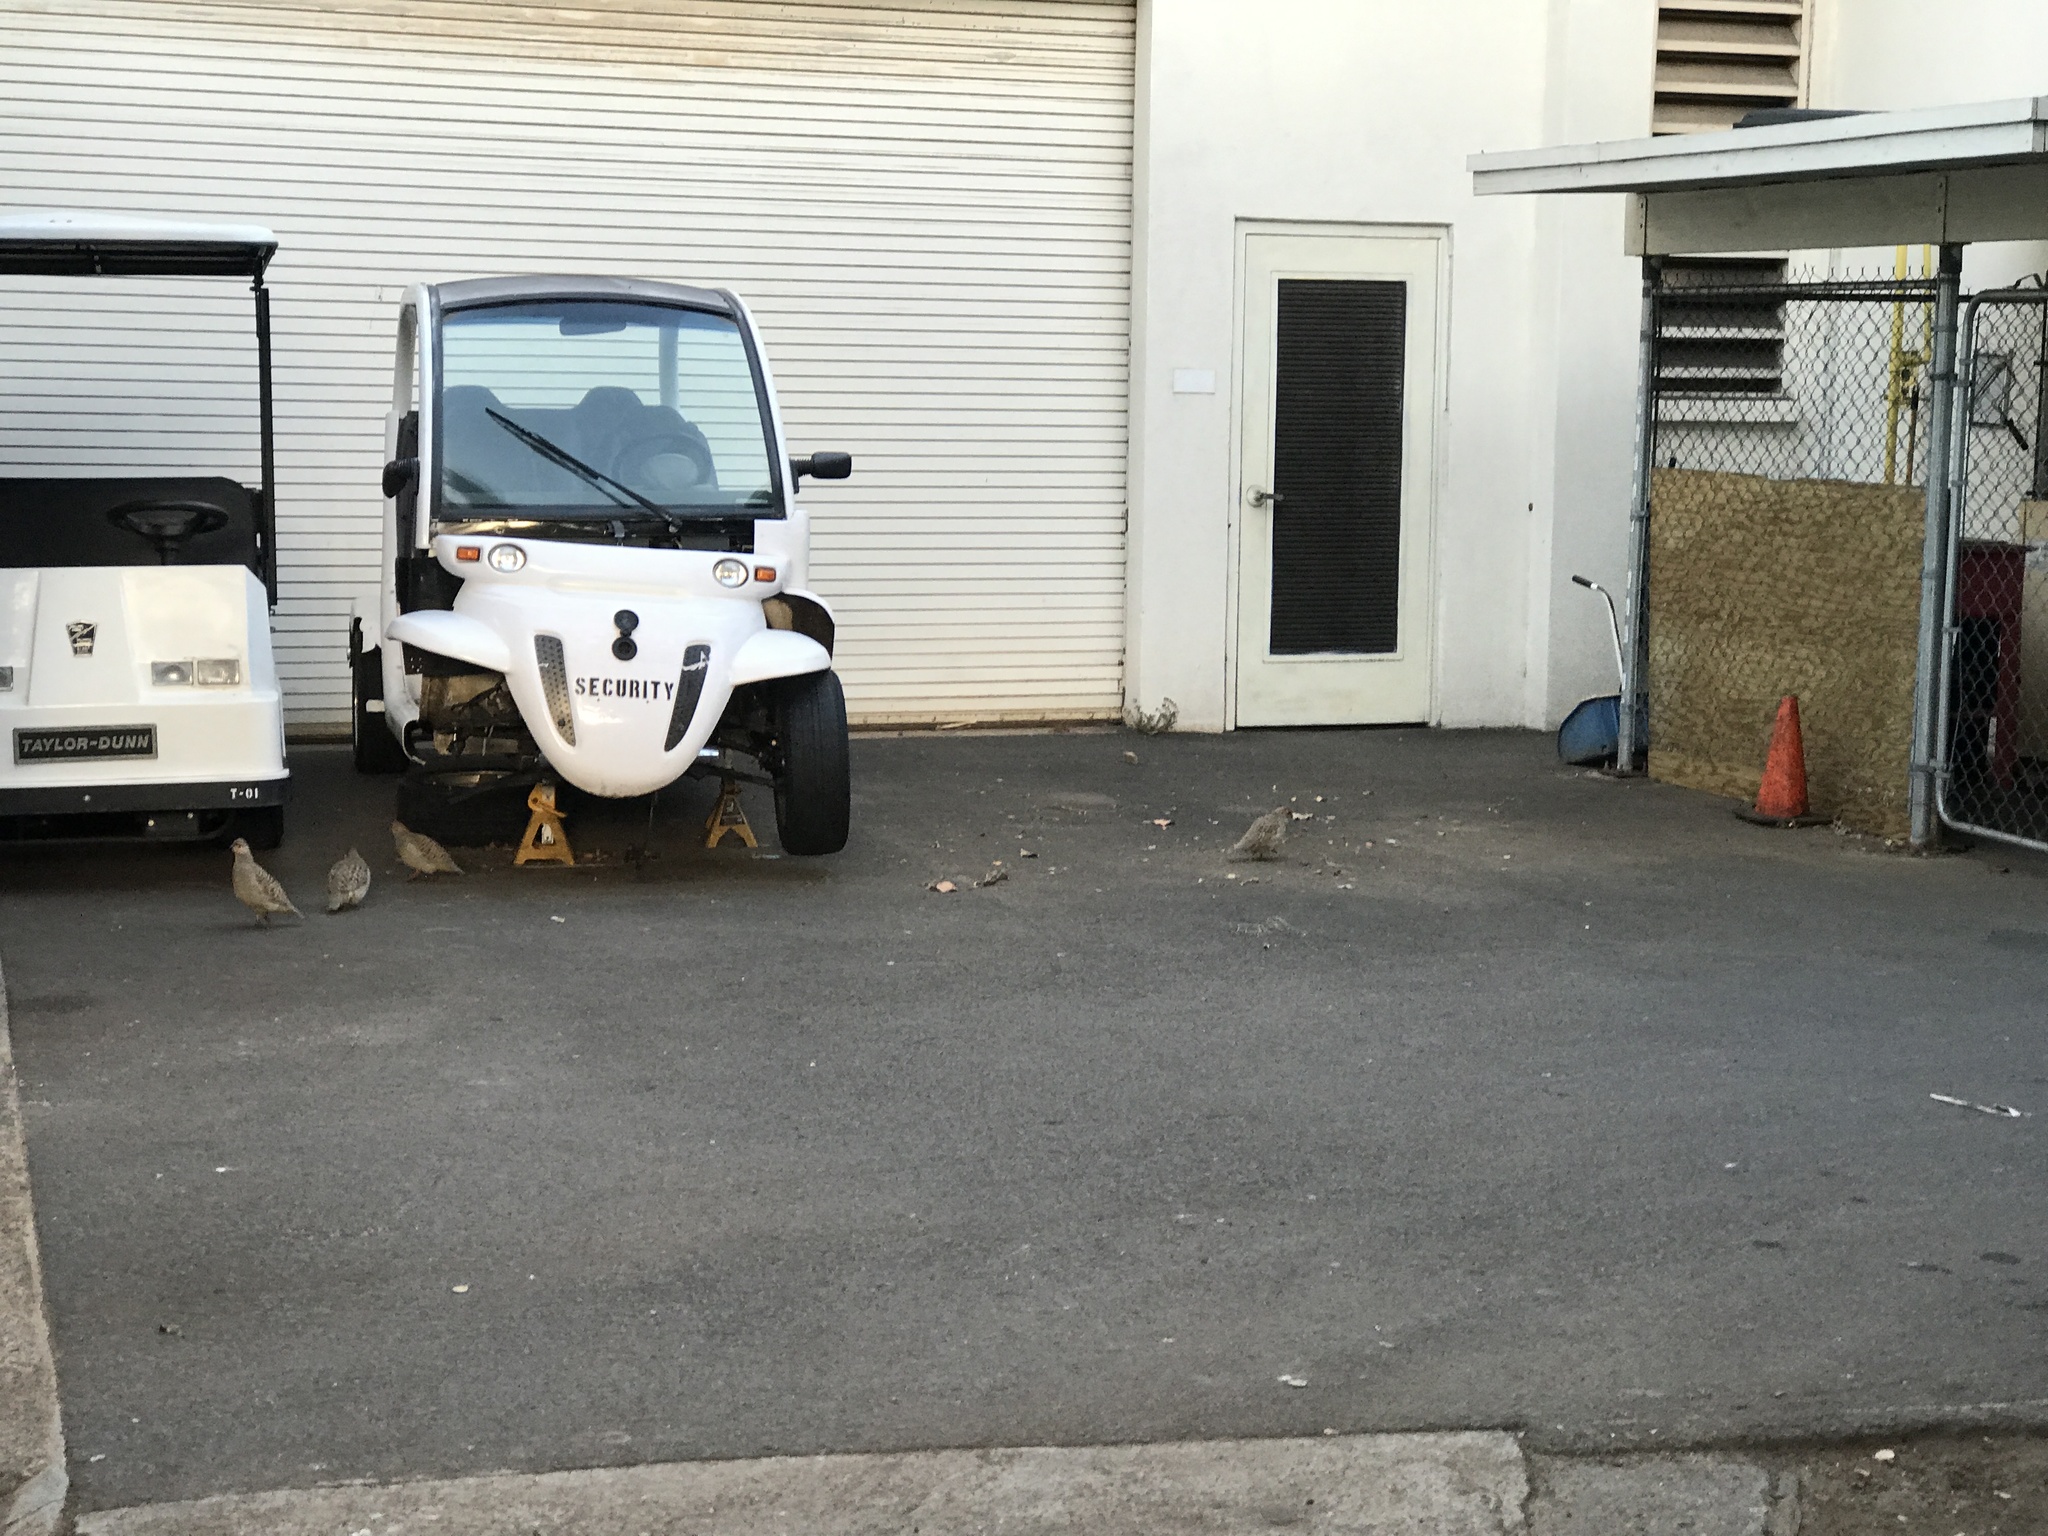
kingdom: Animalia
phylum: Chordata
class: Aves
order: Galliformes
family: Phasianidae
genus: Ortygornis
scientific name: Ortygornis pondicerianus
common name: Grey francolin
